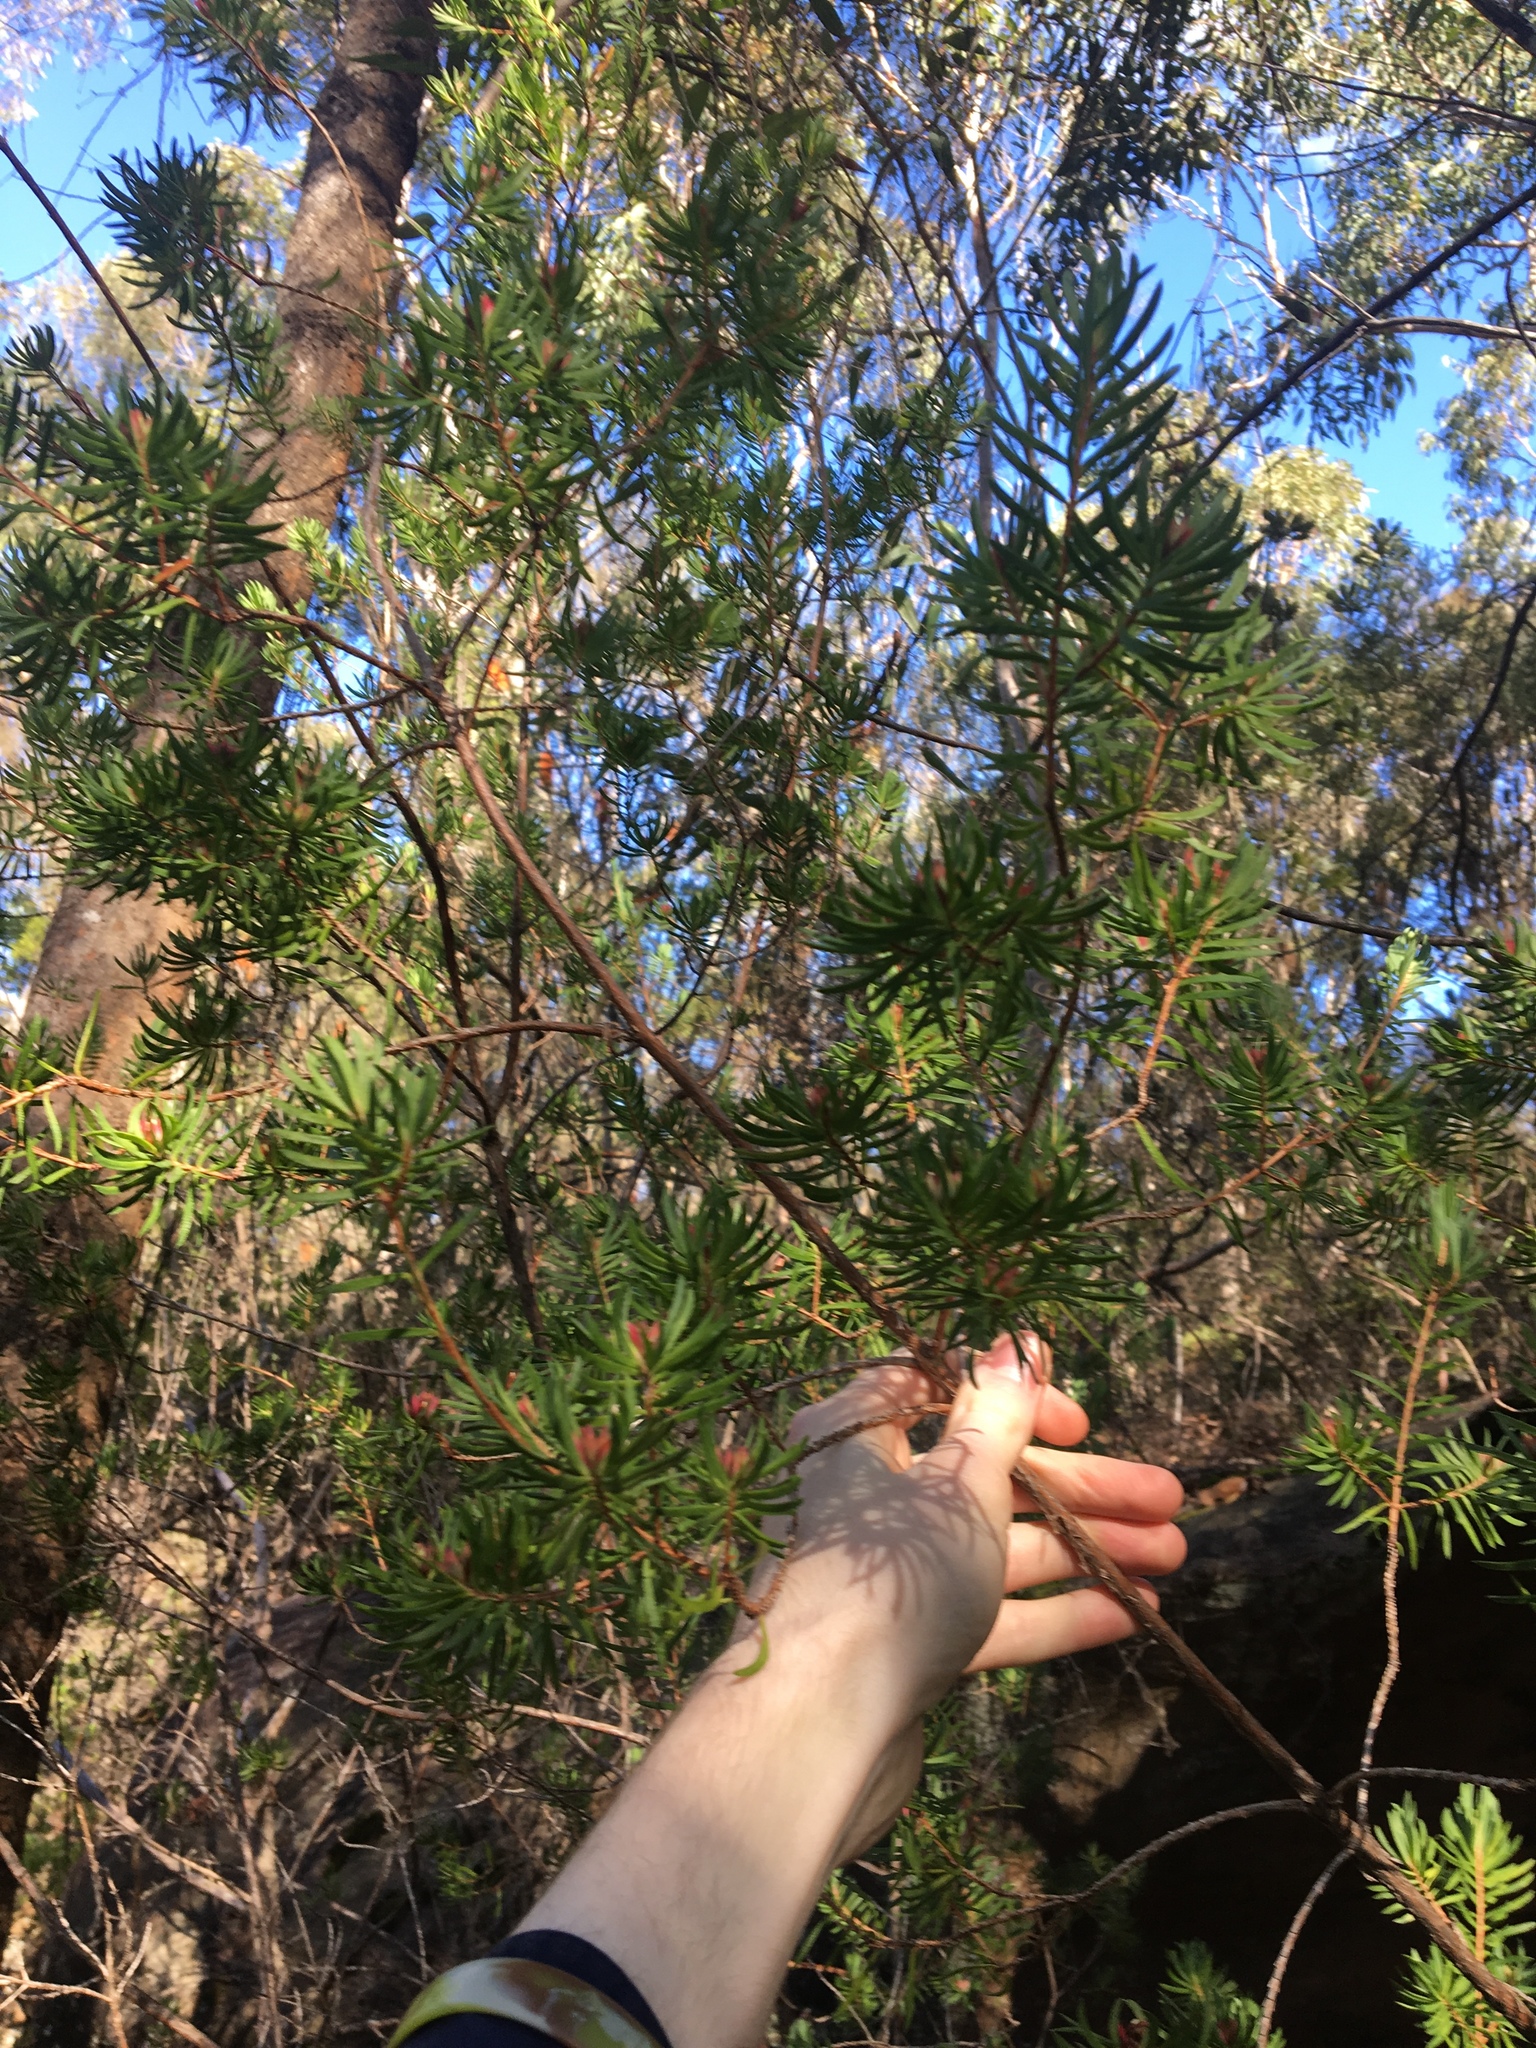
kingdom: Plantae
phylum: Tracheophyta
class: Magnoliopsida
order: Myrtales
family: Myrtaceae
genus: Darwinia
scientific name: Darwinia procera
